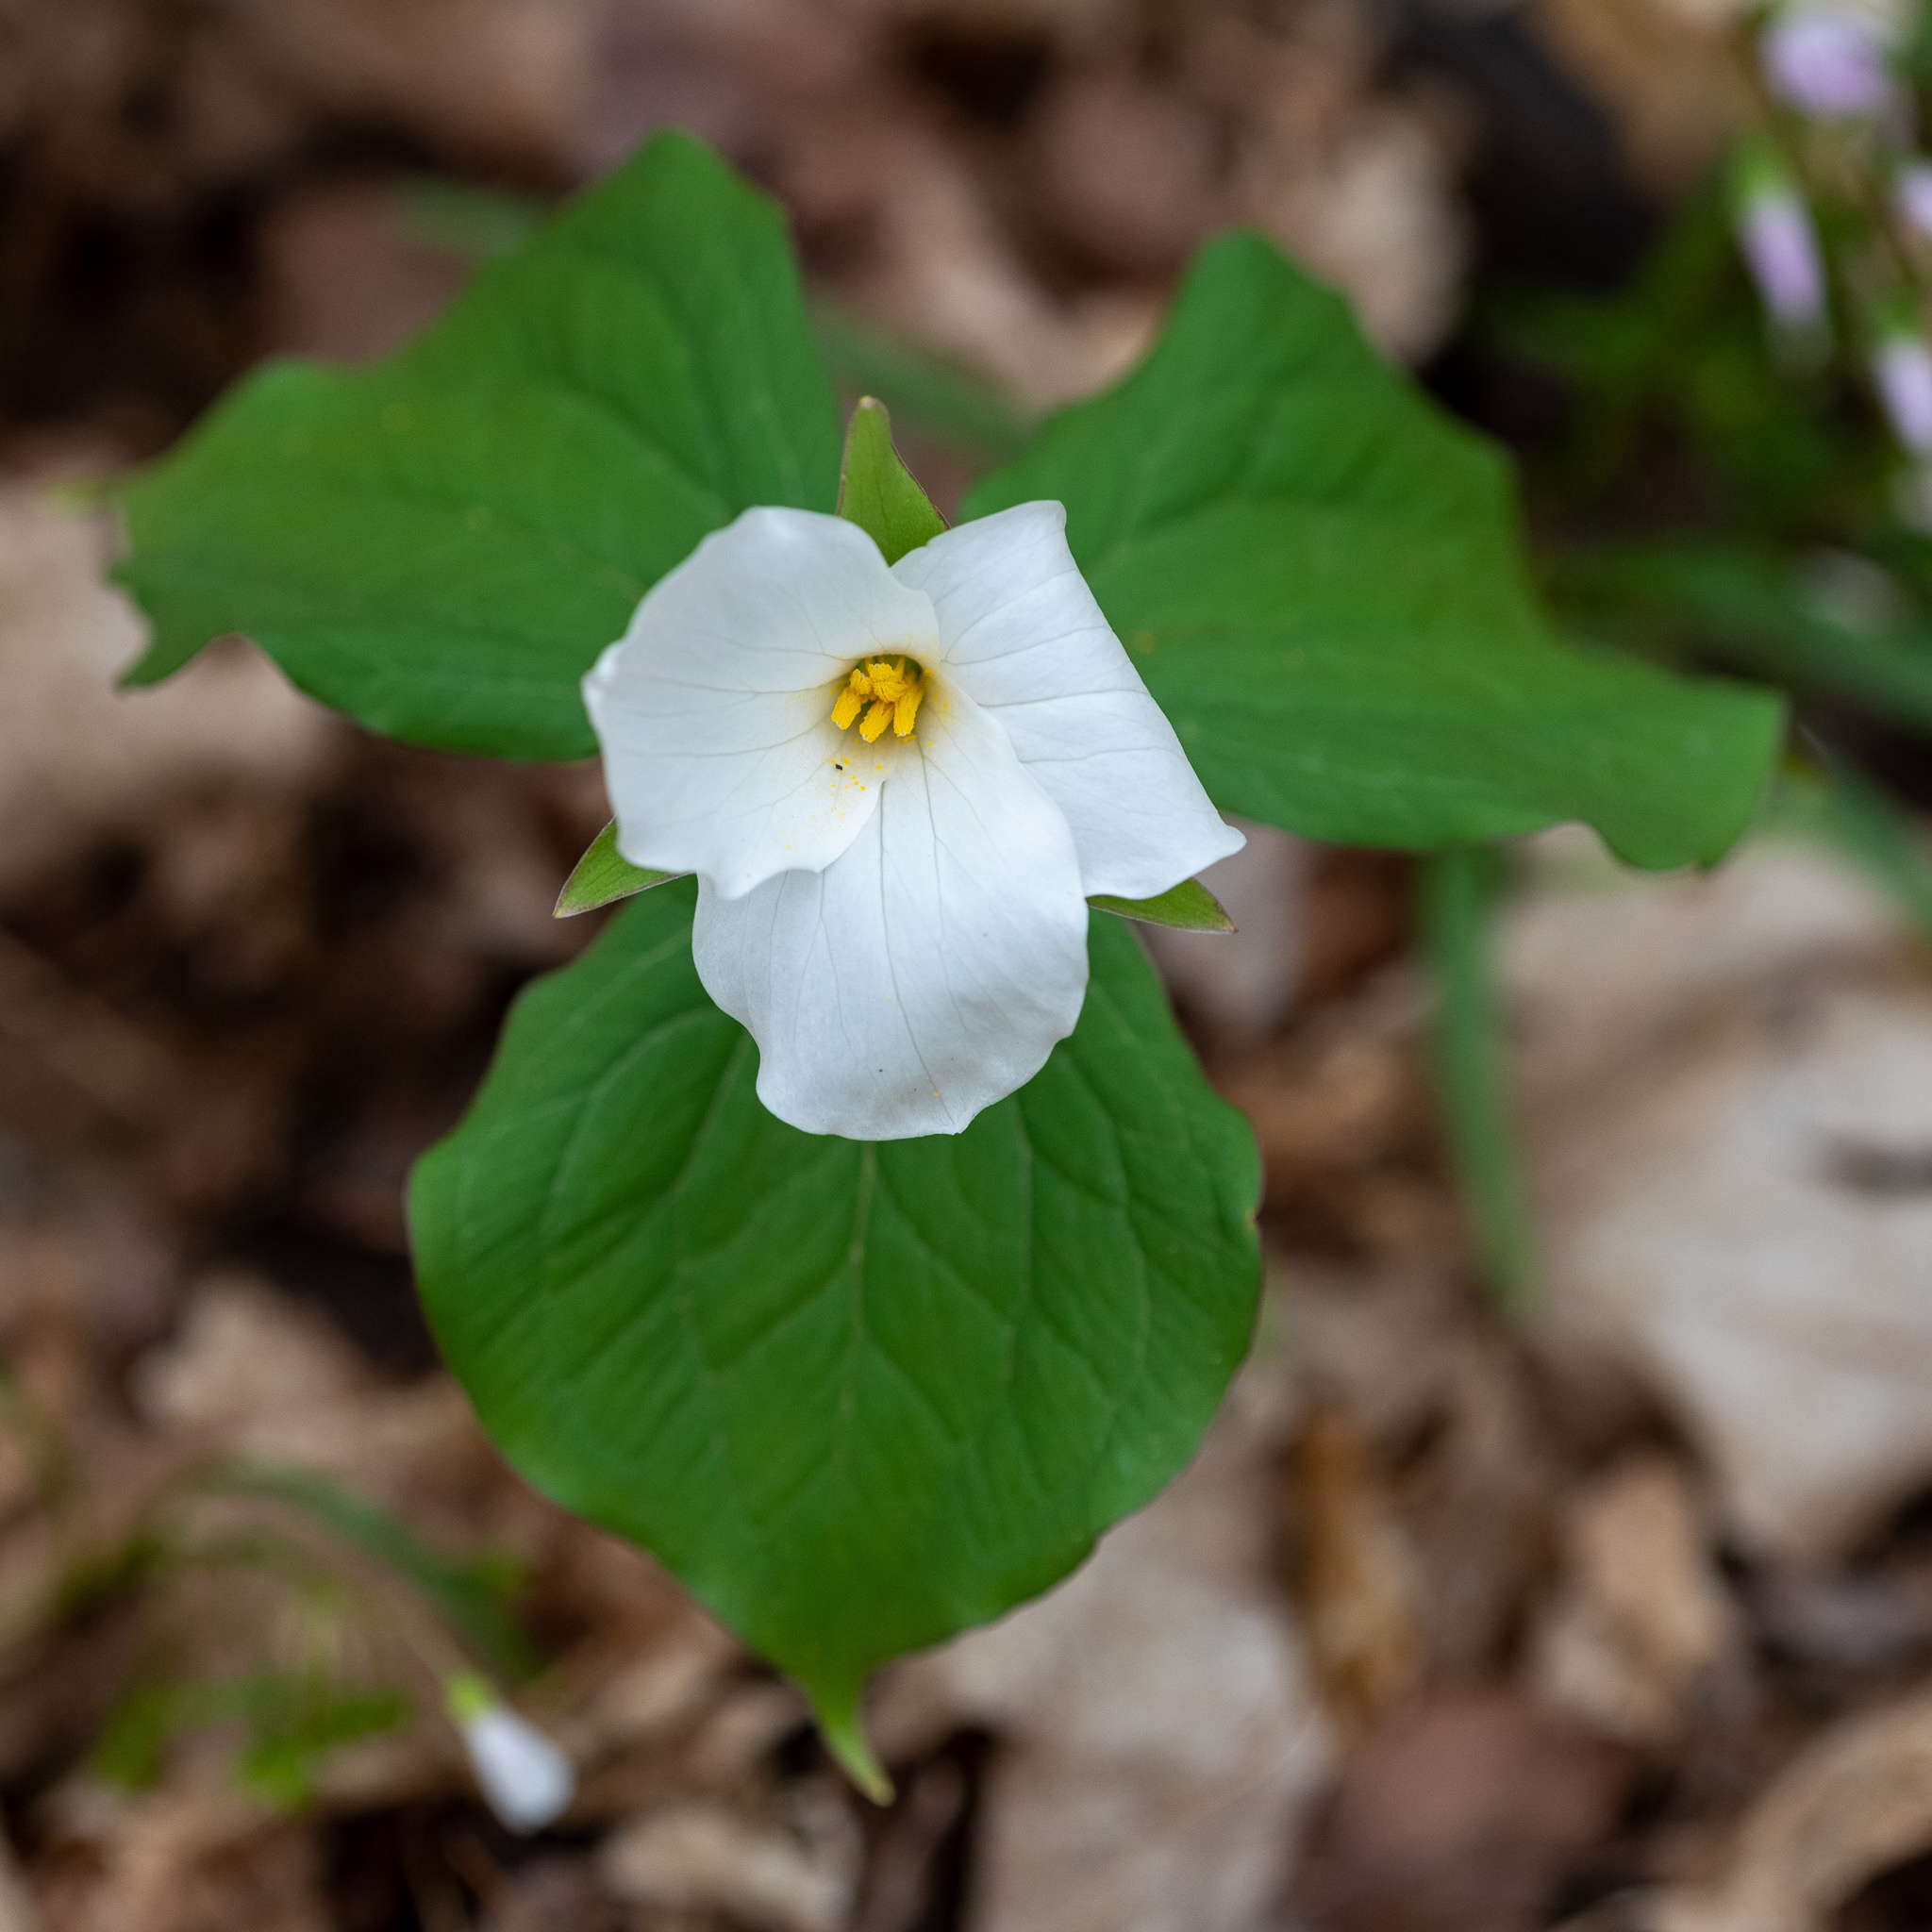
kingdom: Plantae
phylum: Tracheophyta
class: Liliopsida
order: Liliales
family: Melanthiaceae
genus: Trillium
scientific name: Trillium grandiflorum
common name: Great white trillium
